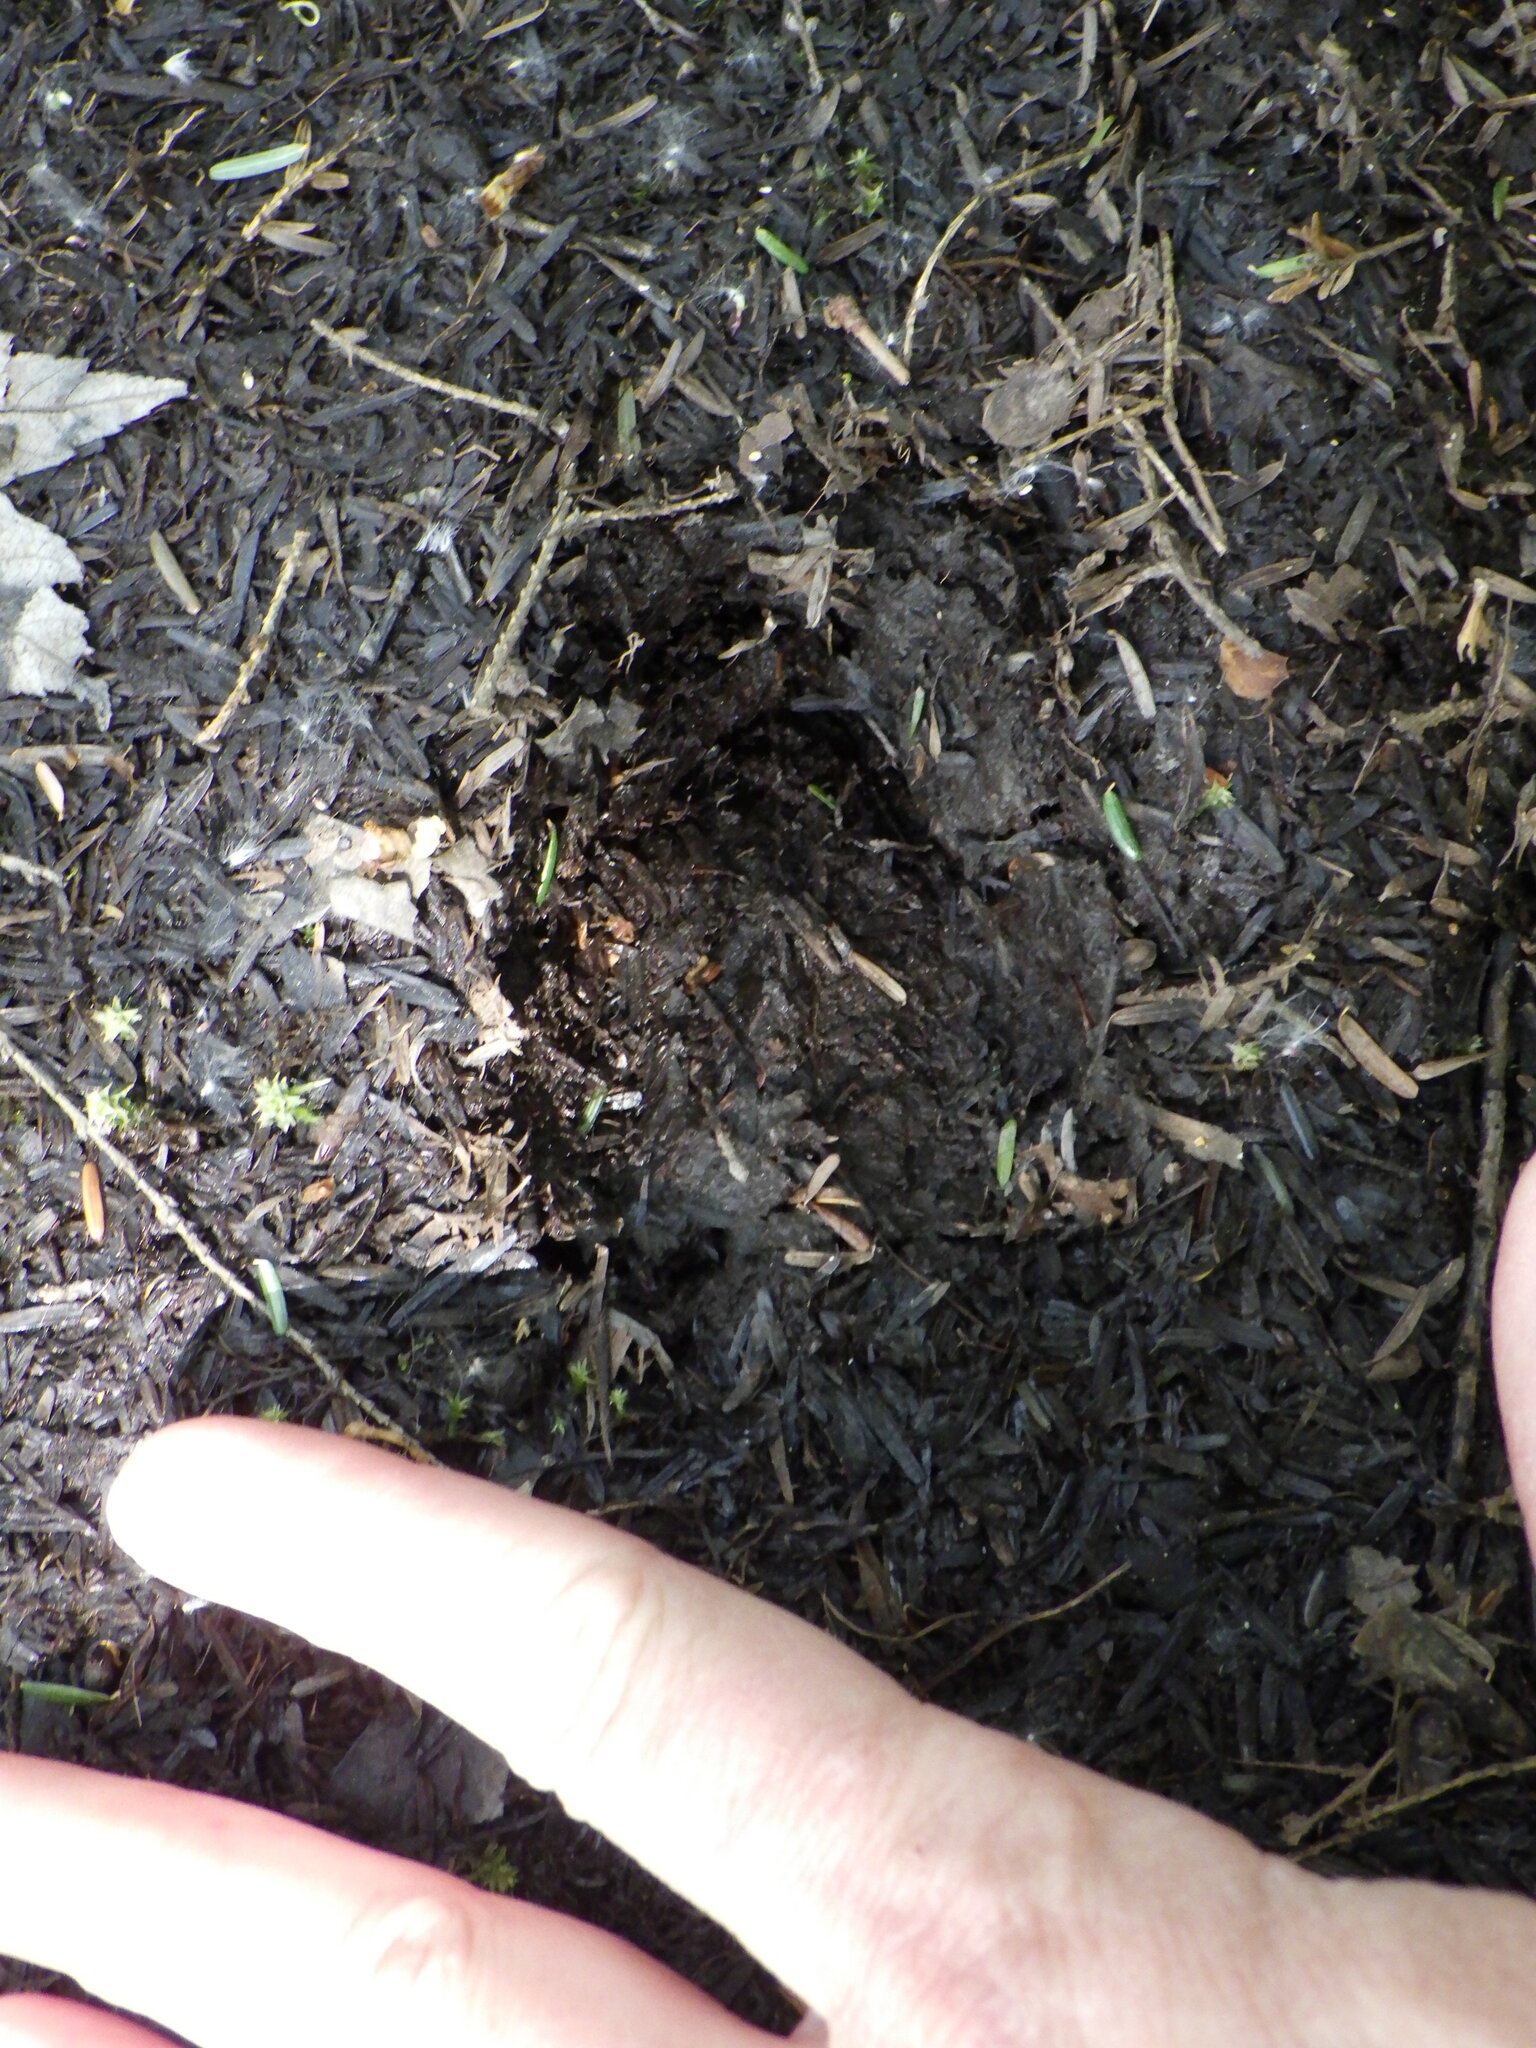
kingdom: Animalia
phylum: Chordata
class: Mammalia
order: Artiodactyla
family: Cervidae
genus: Odocoileus
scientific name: Odocoileus virginianus
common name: White-tailed deer
